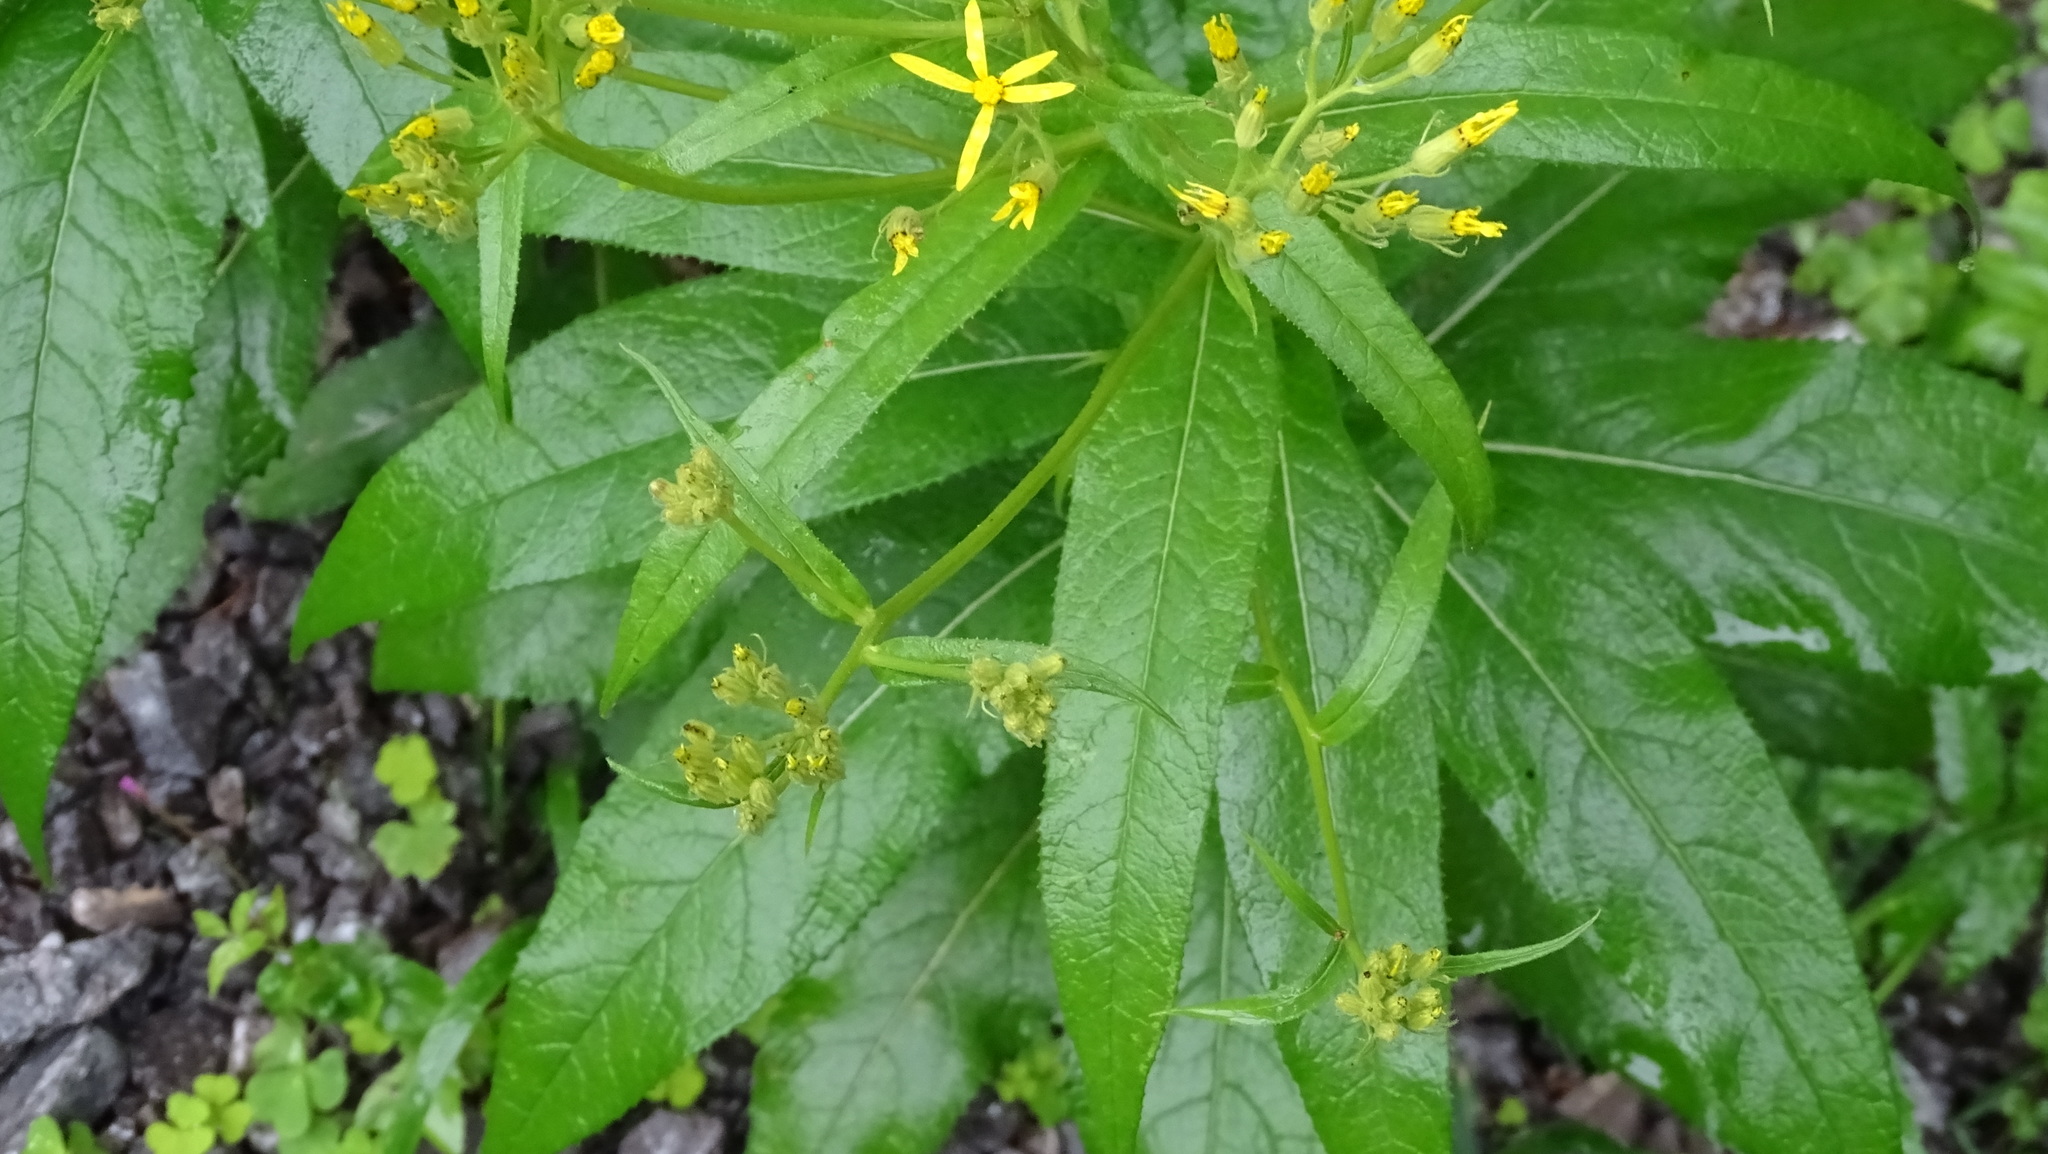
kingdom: Plantae
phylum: Tracheophyta
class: Magnoliopsida
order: Asterales
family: Asteraceae
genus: Senecio
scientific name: Senecio ovatus
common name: Wood ragwort
